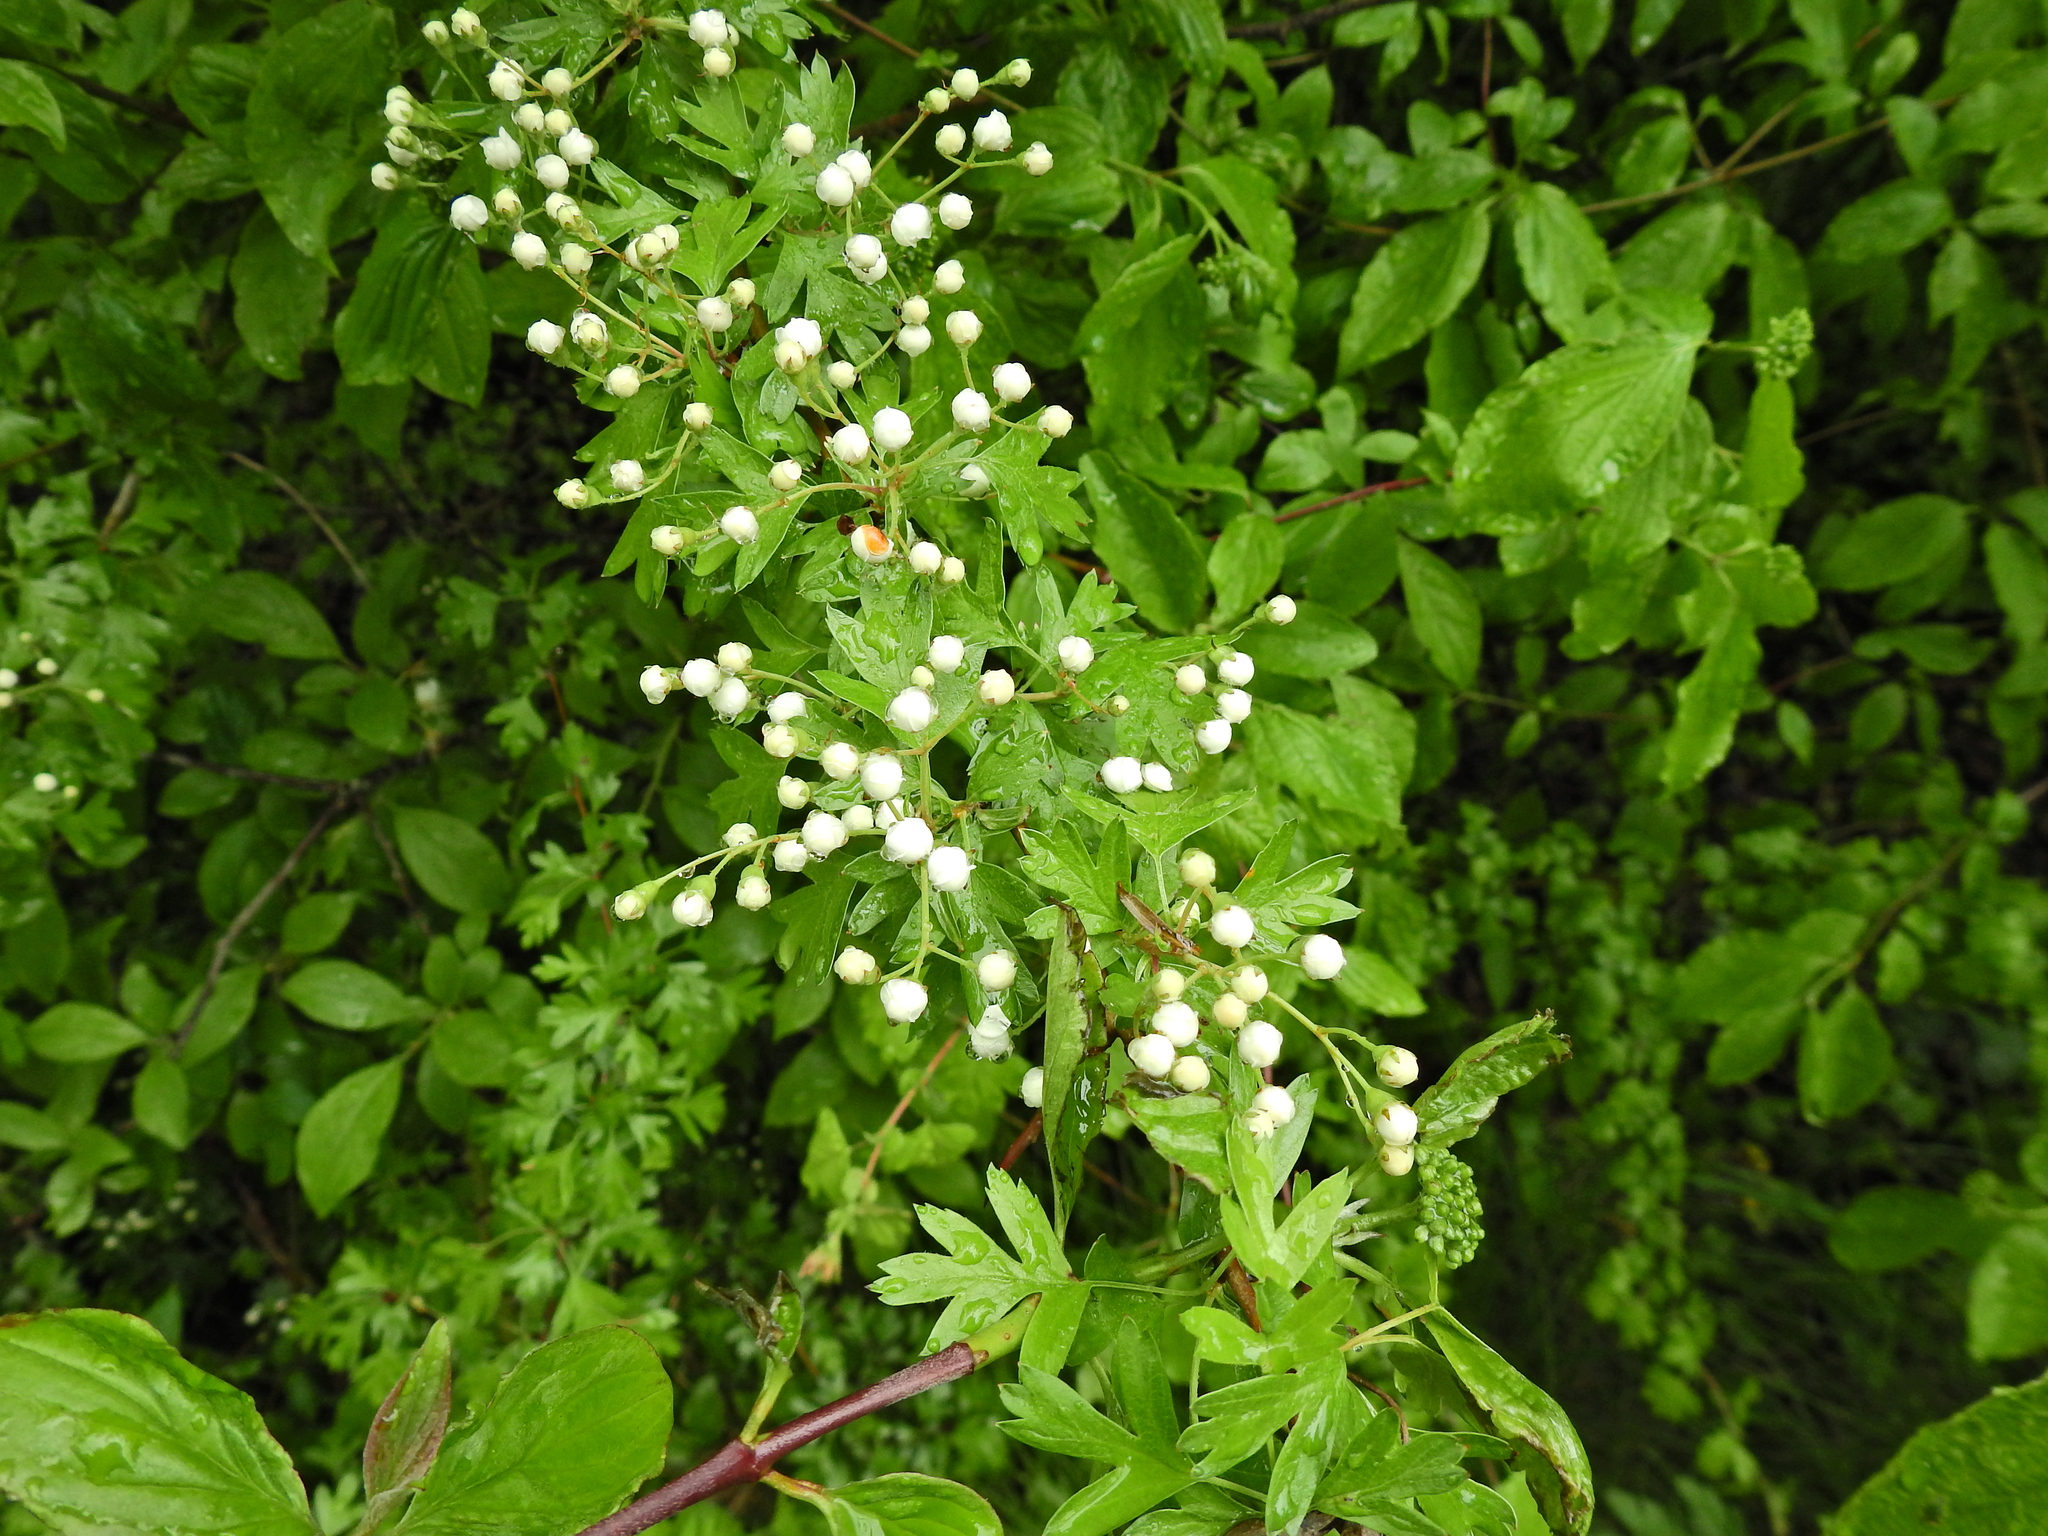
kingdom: Plantae
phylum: Tracheophyta
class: Magnoliopsida
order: Rosales
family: Rosaceae
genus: Crataegus
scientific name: Crataegus monogyna
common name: Hawthorn
